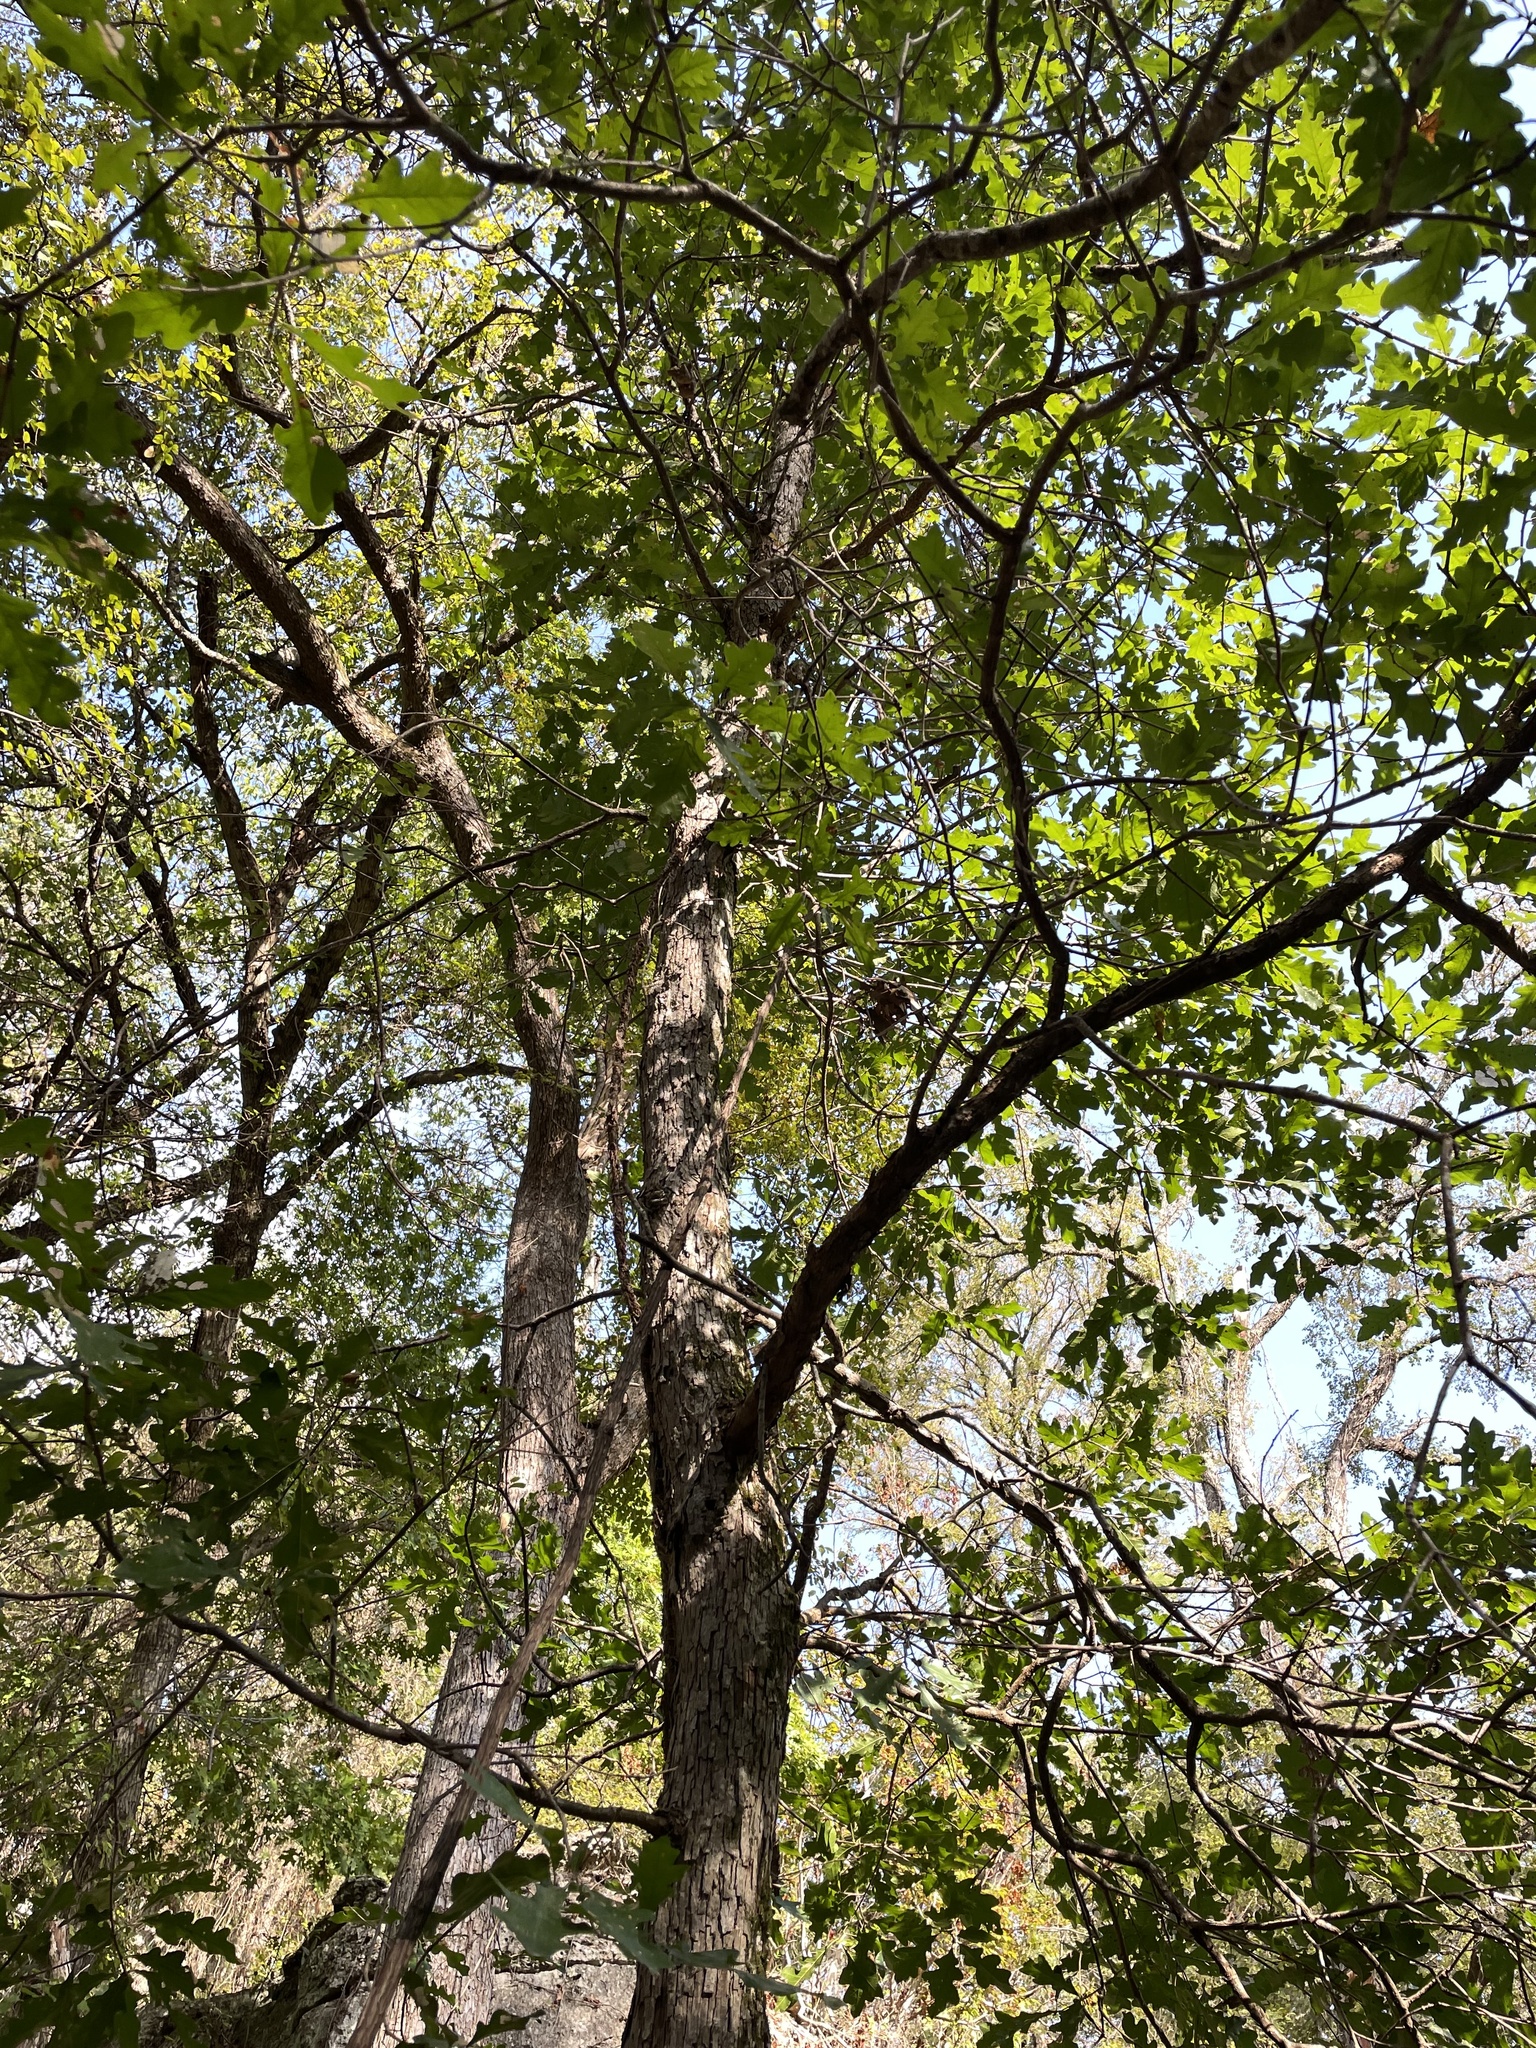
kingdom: Plantae
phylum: Tracheophyta
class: Magnoliopsida
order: Fagales
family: Fagaceae
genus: Quercus
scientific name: Quercus sinuata
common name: Durand oak
